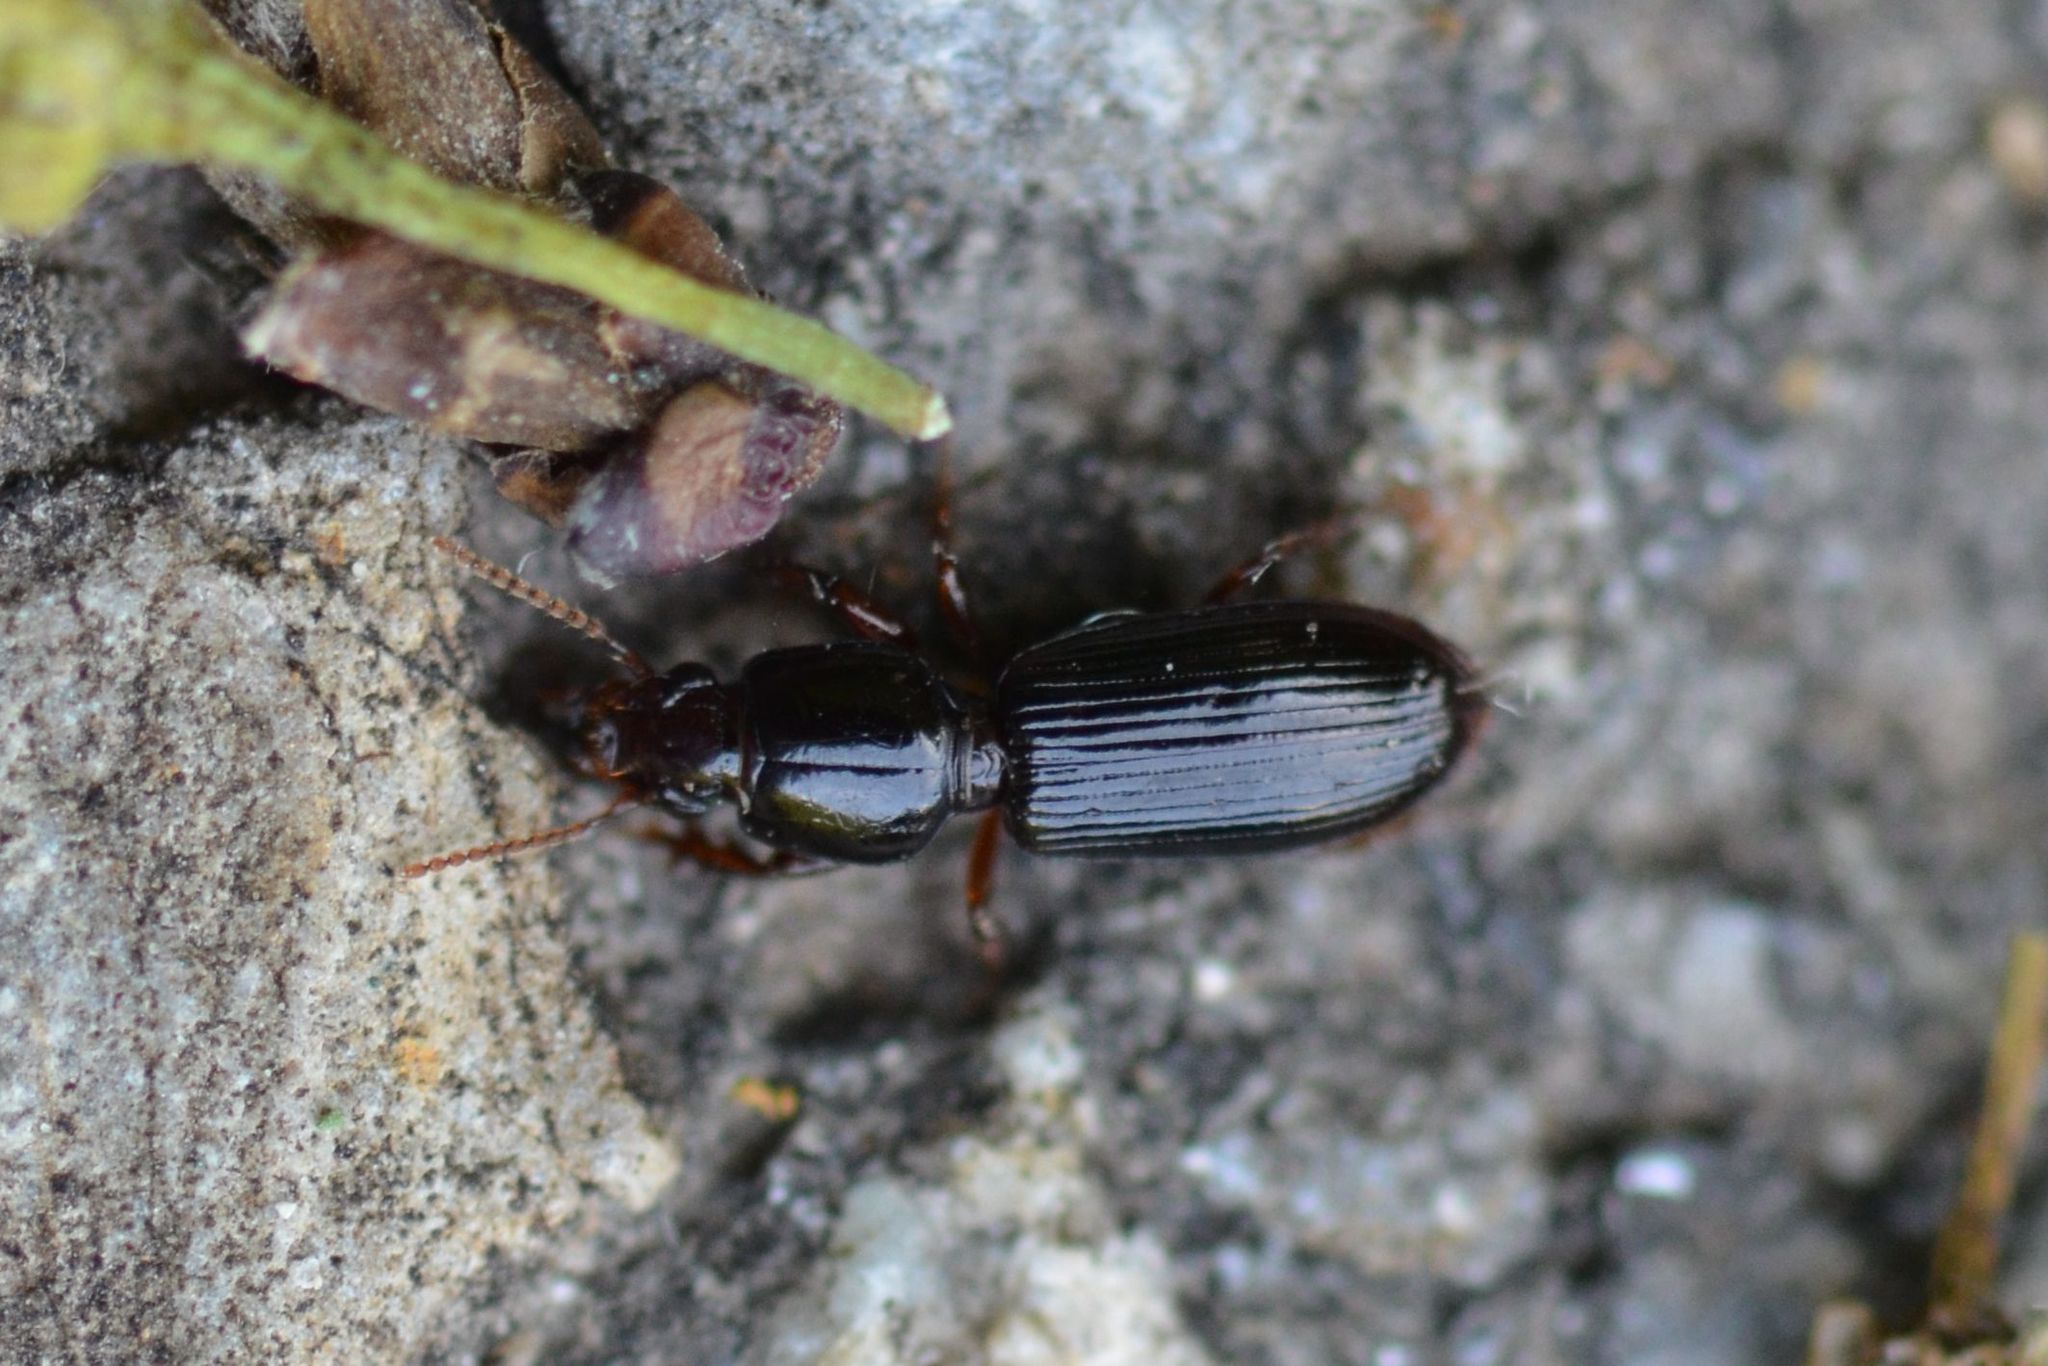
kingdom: Animalia
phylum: Arthropoda
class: Insecta
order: Coleoptera
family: Carabidae
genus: Clivina
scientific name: Clivina fossor
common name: Digging pedunculate ground beetle
